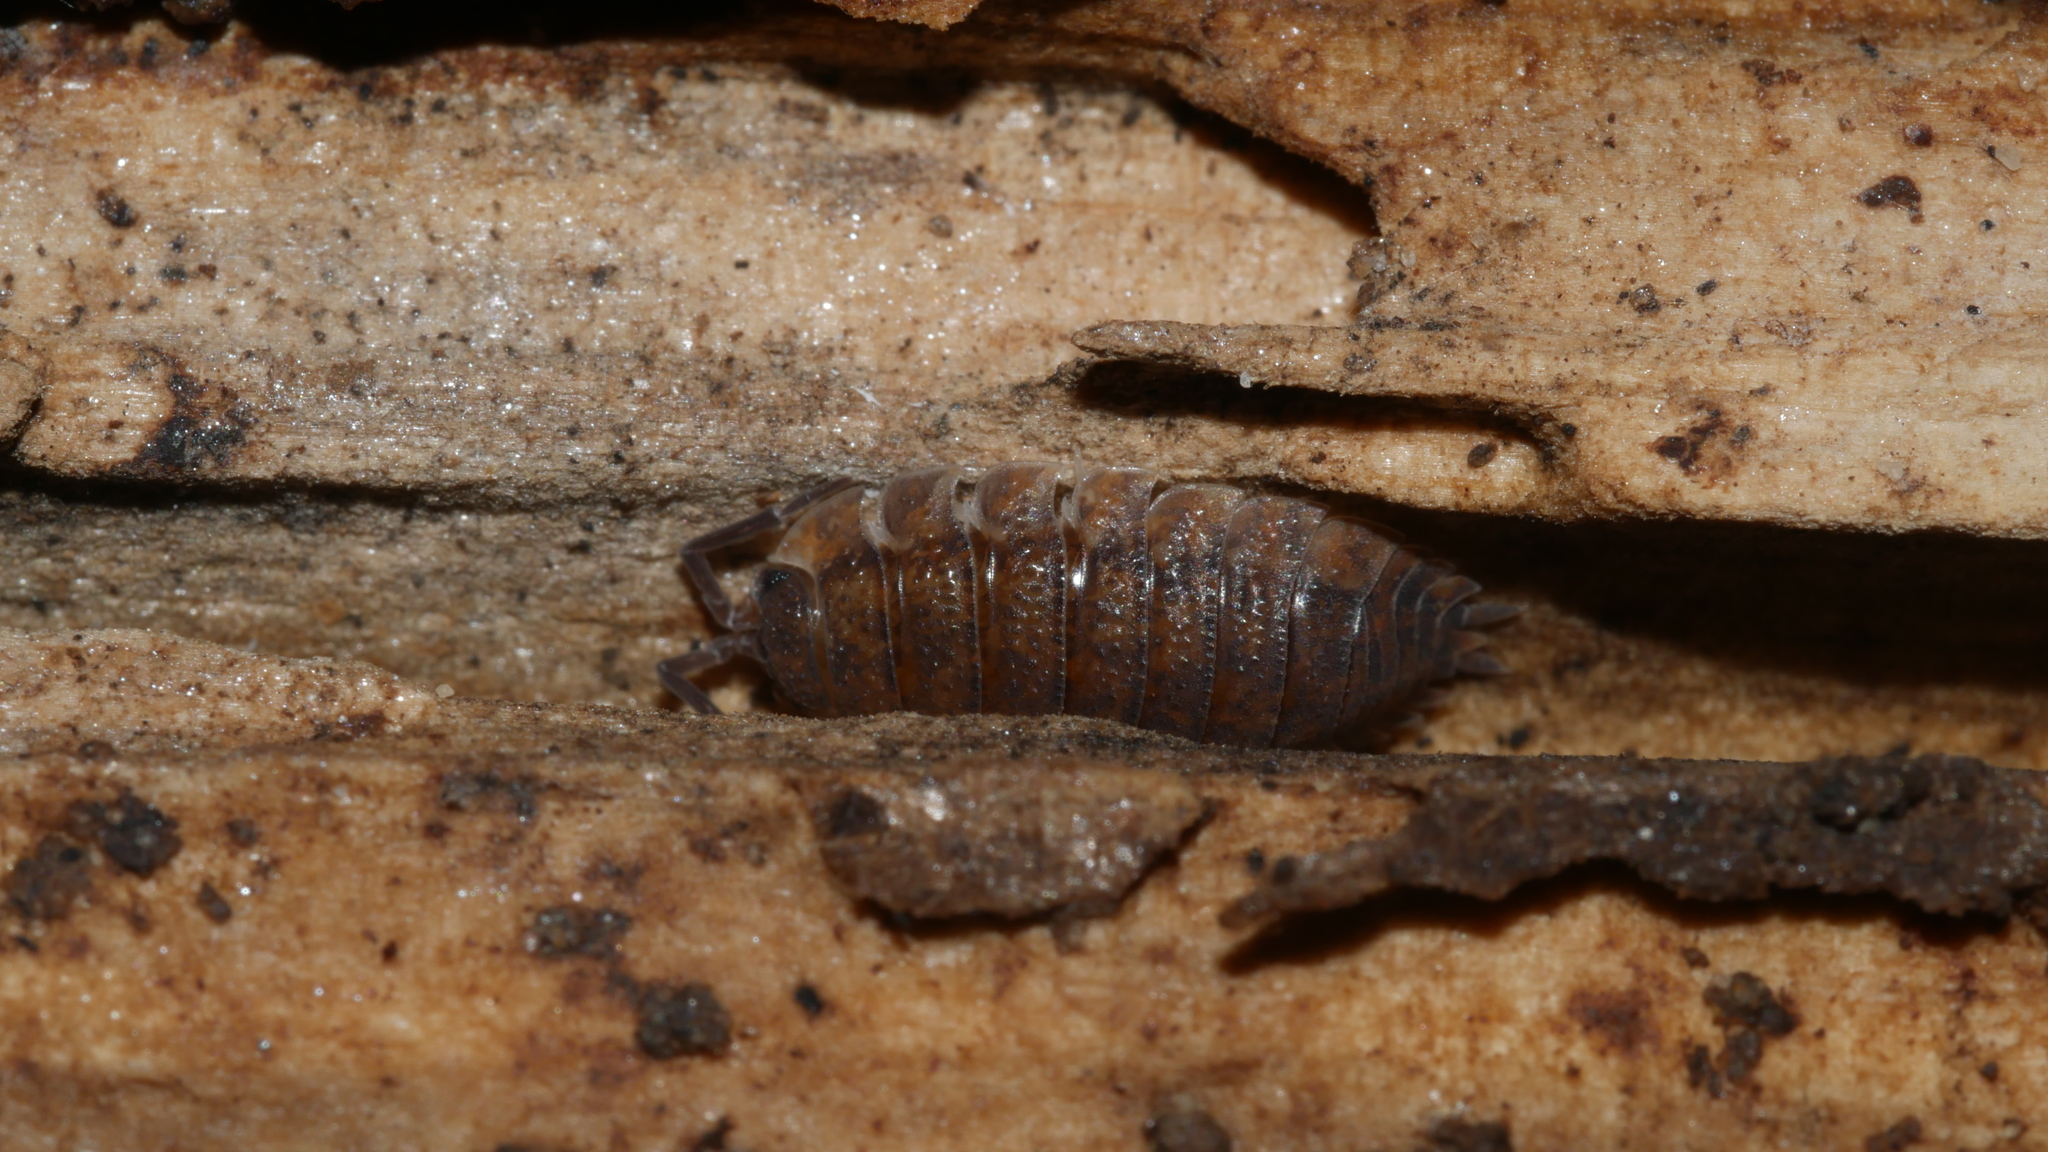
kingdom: Animalia
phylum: Arthropoda
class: Malacostraca
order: Isopoda
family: Porcellionidae
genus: Porcellio
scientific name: Porcellio scaber
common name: Common rough woodlouse
